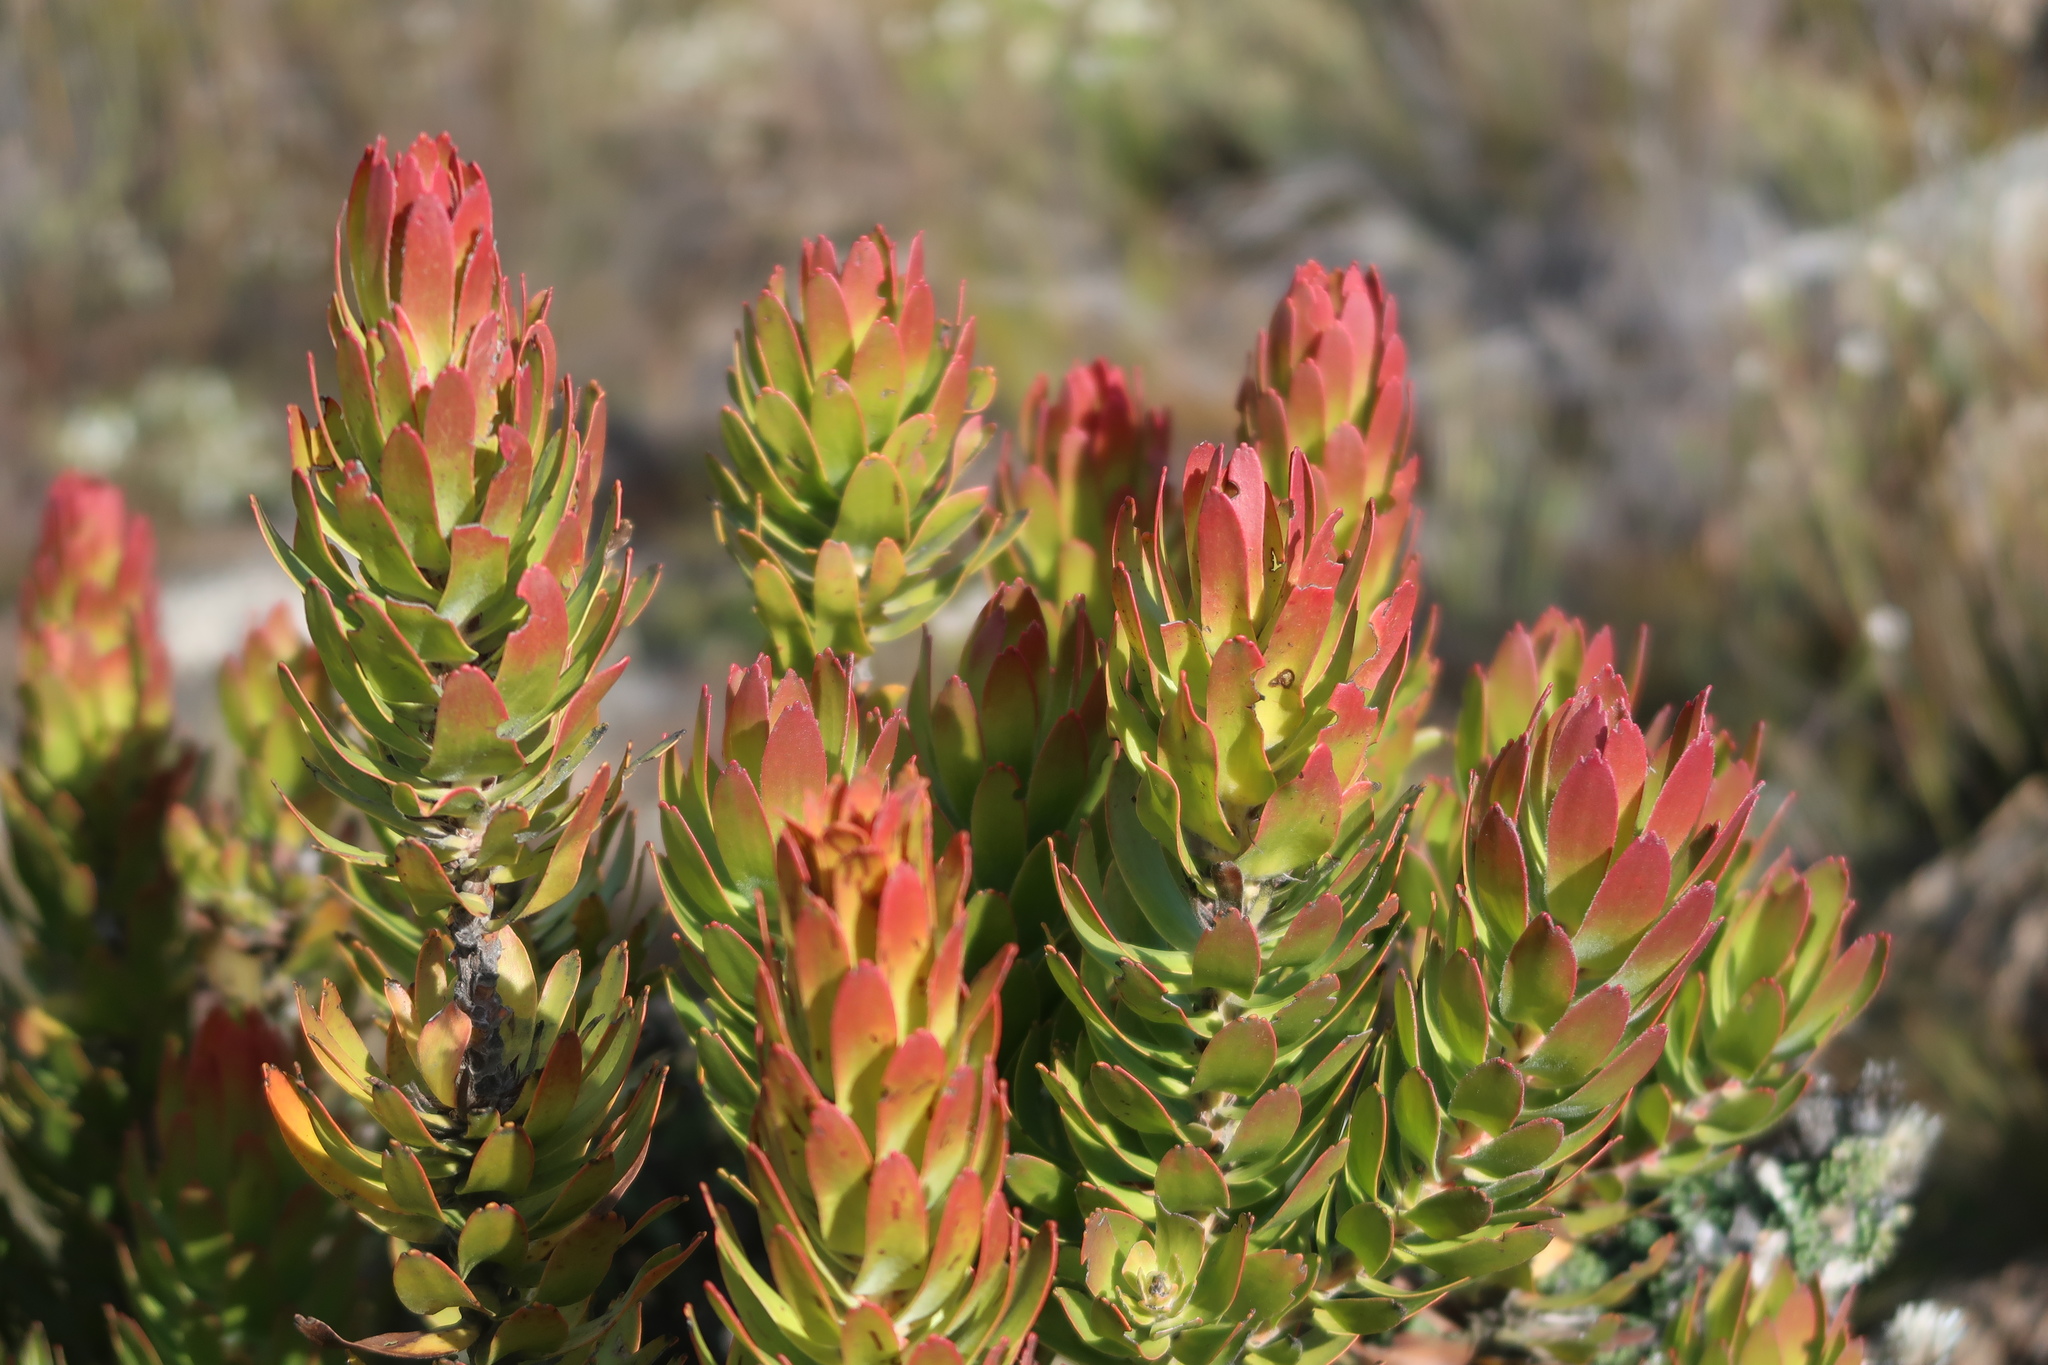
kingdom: Plantae
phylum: Tracheophyta
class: Magnoliopsida
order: Proteales
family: Proteaceae
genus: Mimetes
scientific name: Mimetes cucullatus
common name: Common pagoda
